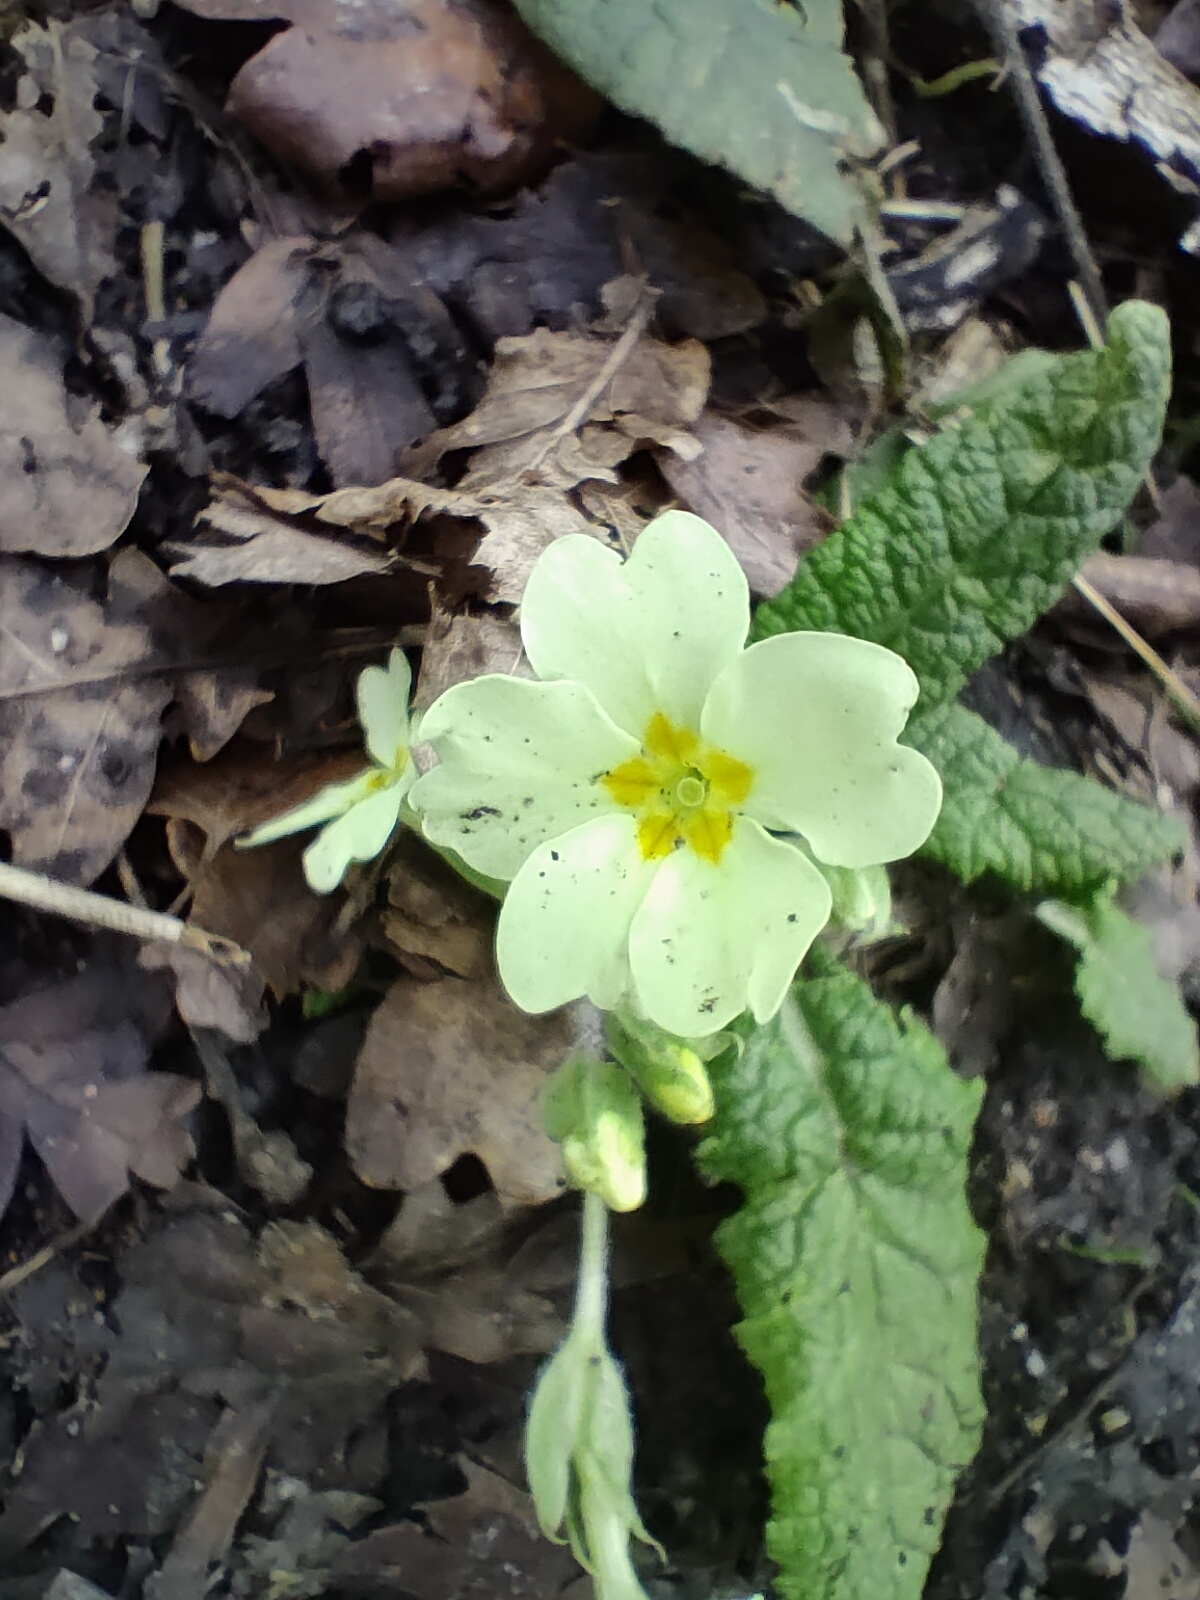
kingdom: Plantae
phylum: Tracheophyta
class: Magnoliopsida
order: Ericales
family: Primulaceae
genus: Primula
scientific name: Primula vulgaris
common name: Primrose
